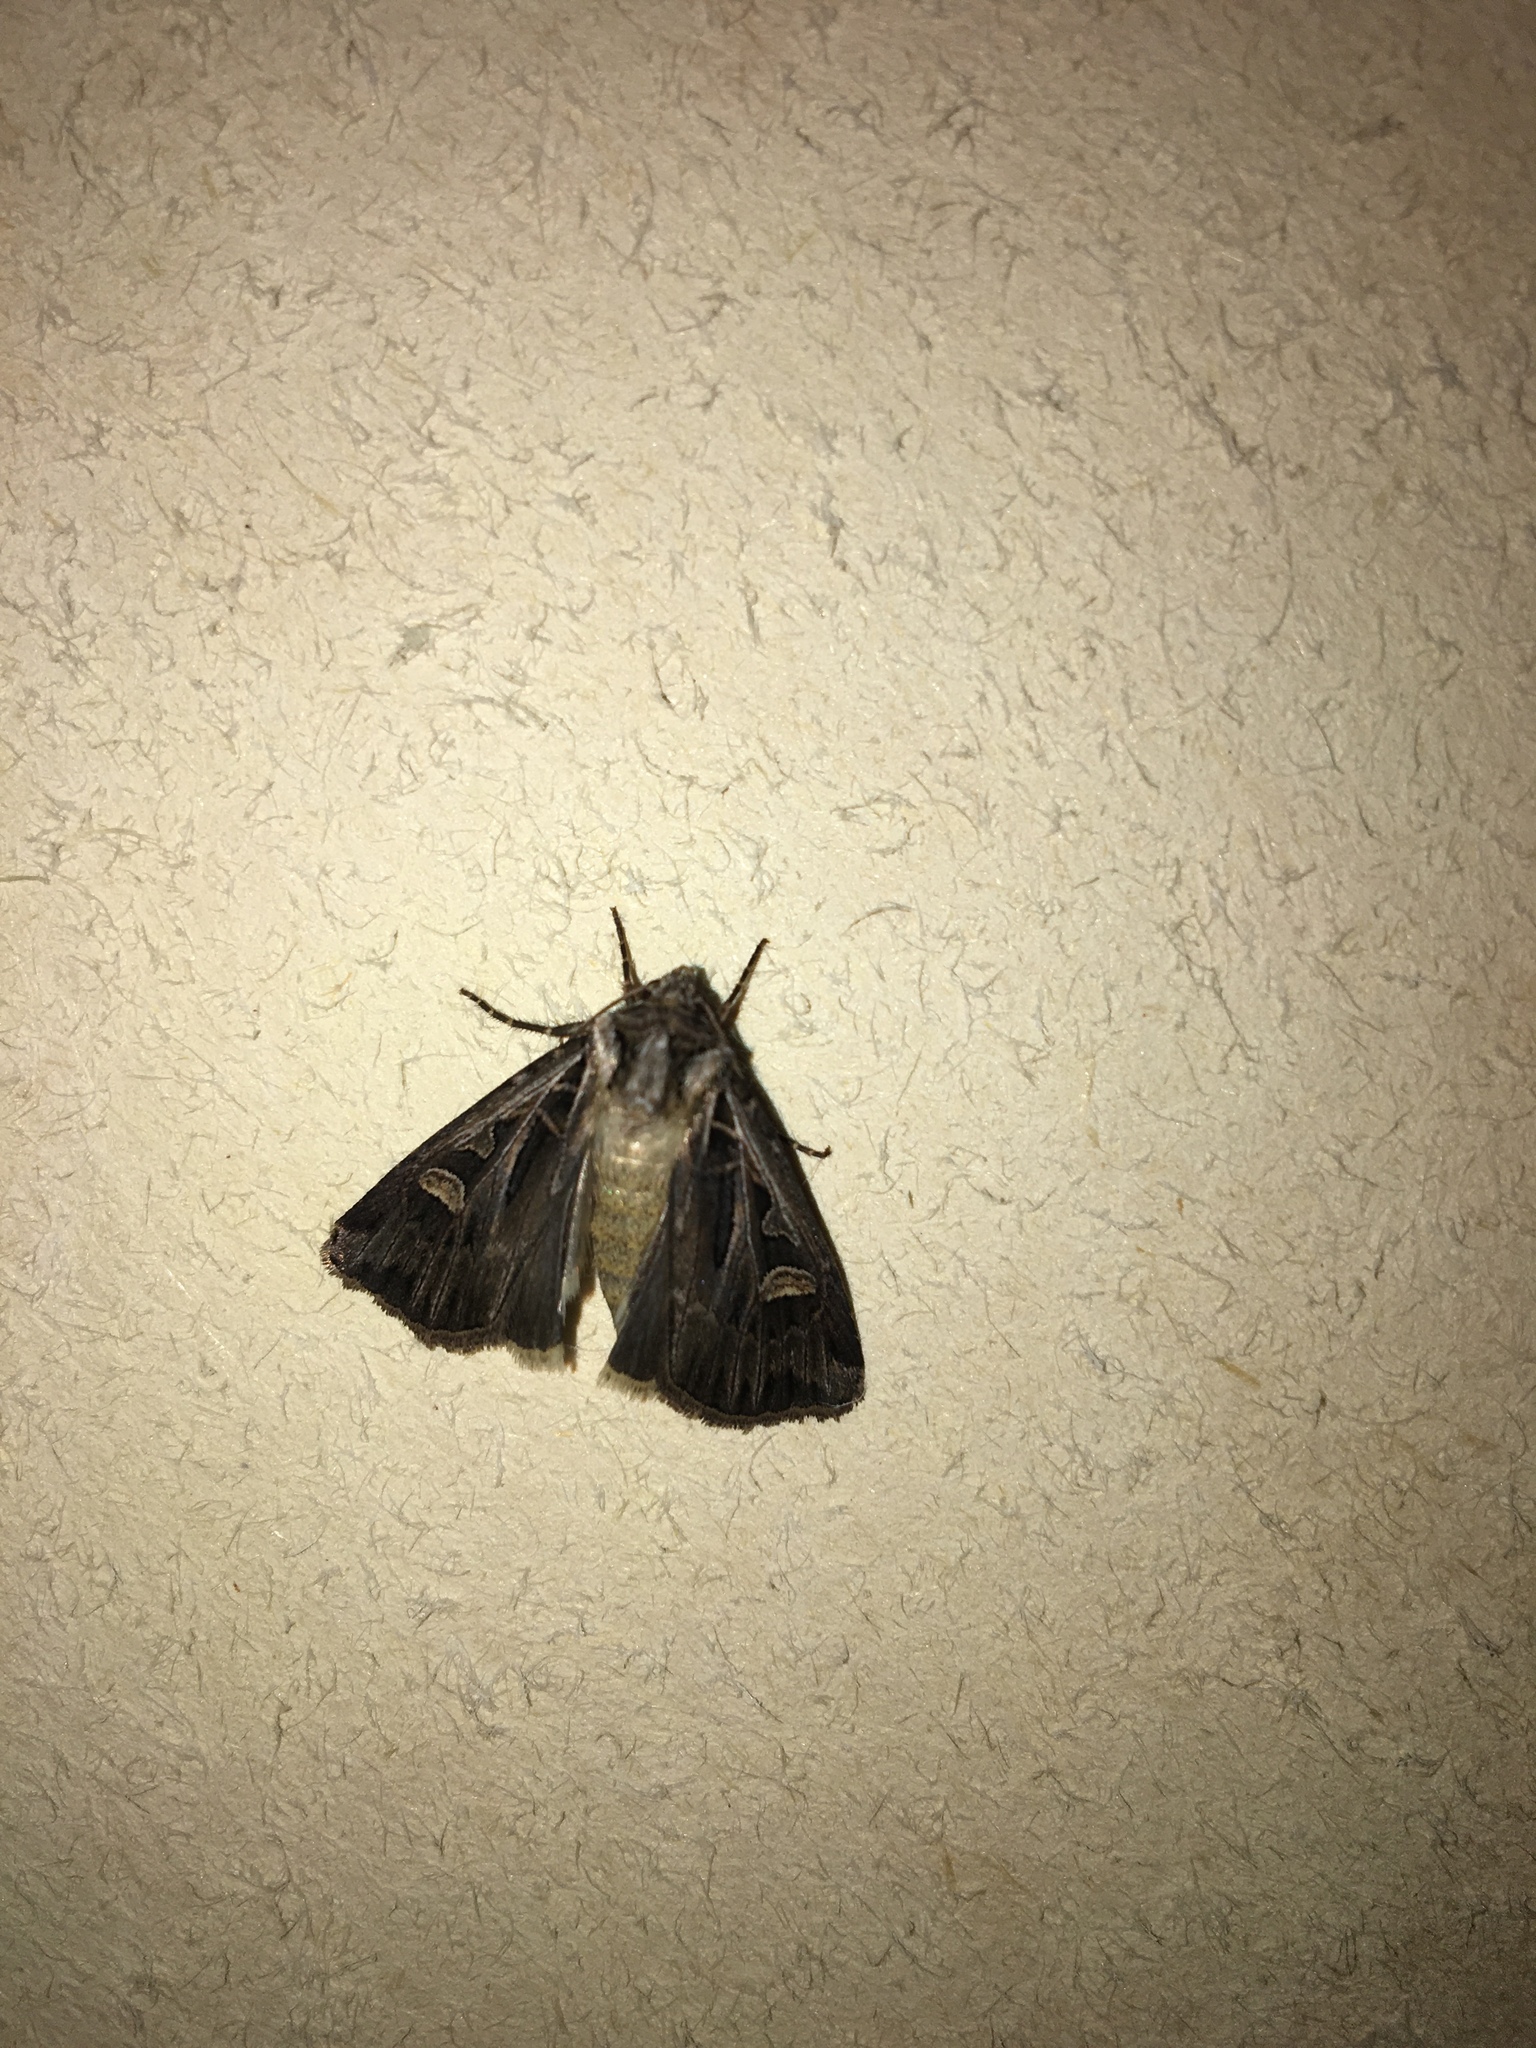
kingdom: Animalia
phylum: Arthropoda
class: Insecta
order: Lepidoptera
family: Noctuidae
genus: Feltia
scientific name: Feltia jaculifera
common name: Dingy cutworm moth
